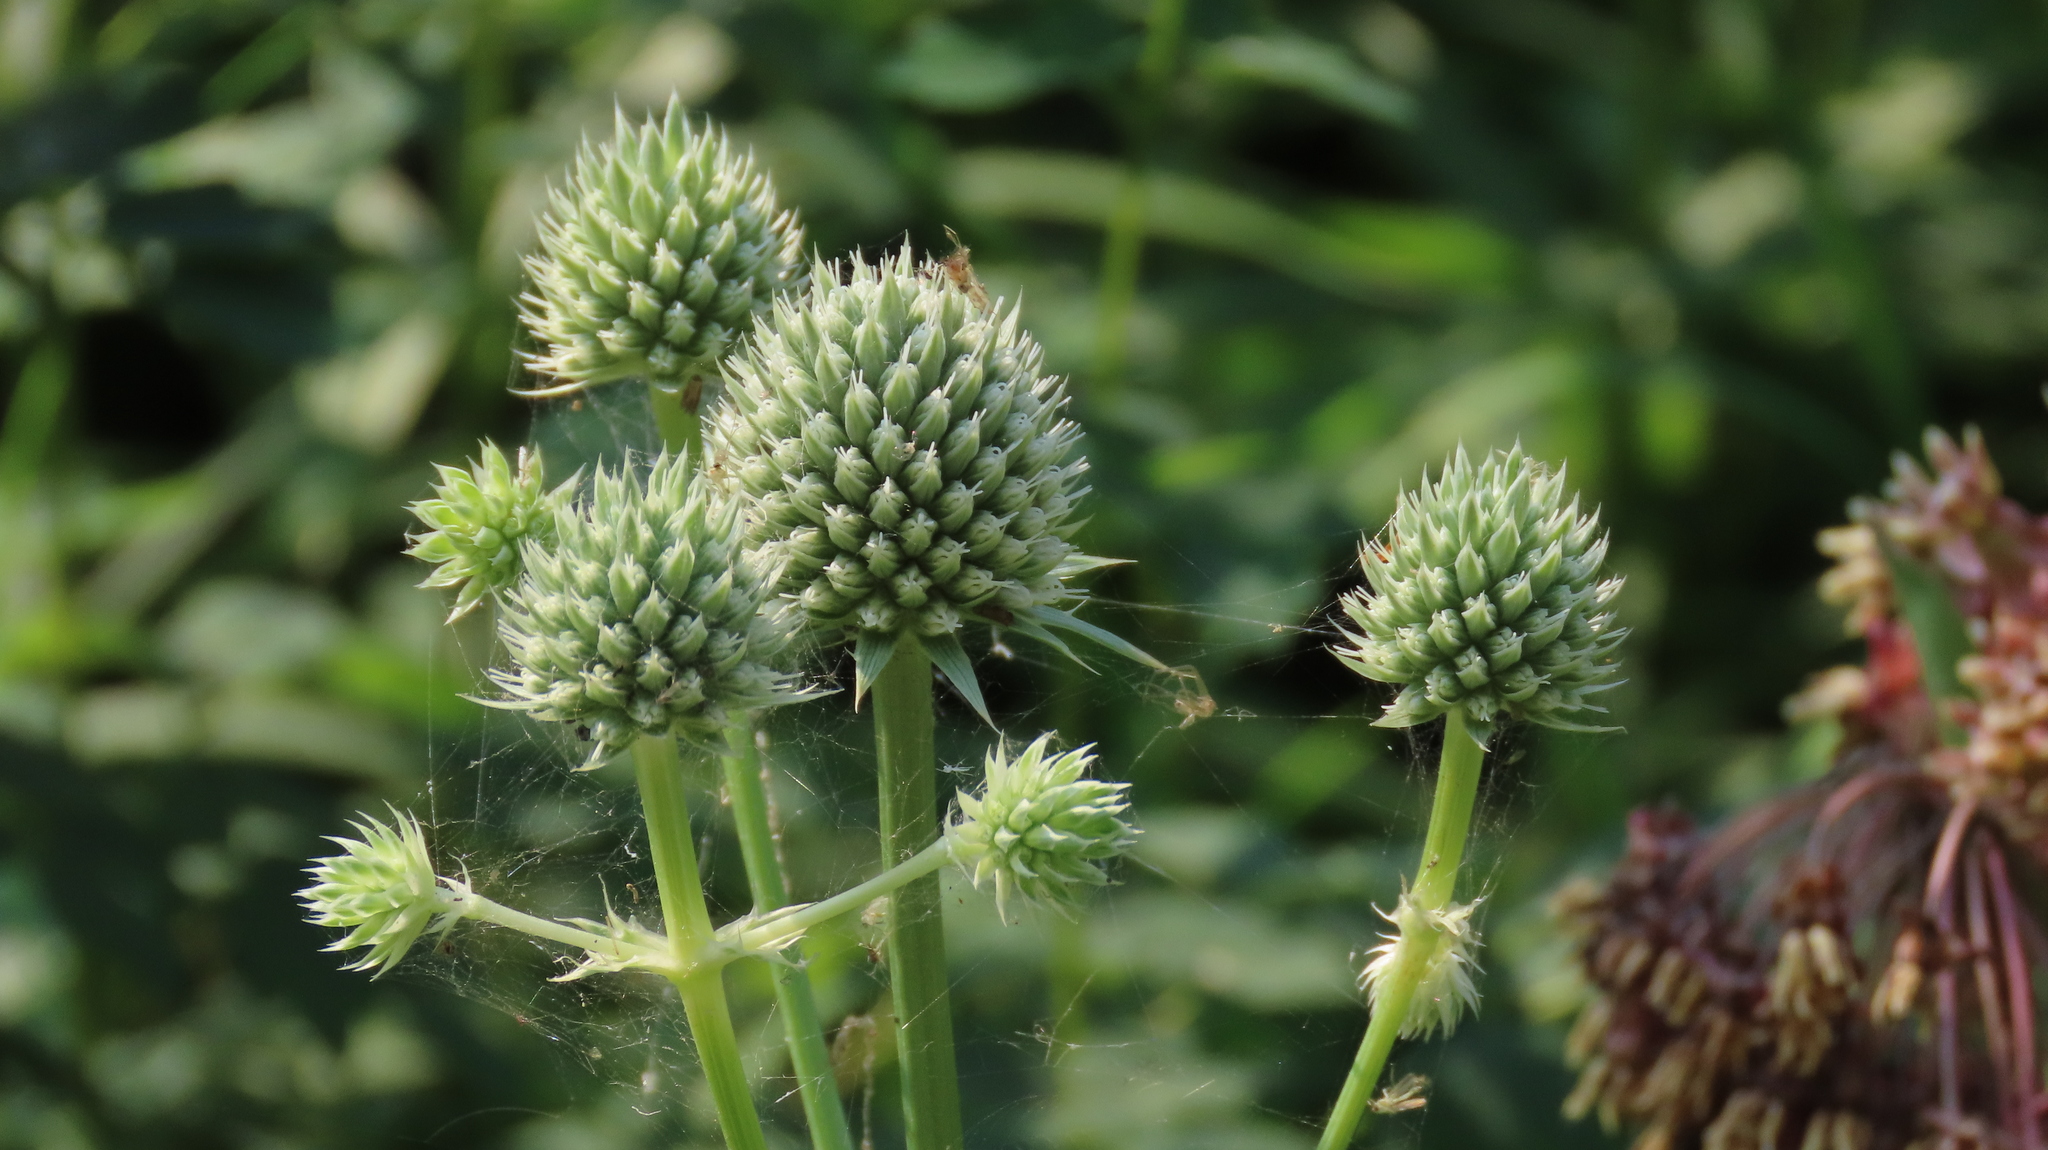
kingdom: Plantae
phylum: Tracheophyta
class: Magnoliopsida
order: Apiales
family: Apiaceae
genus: Eryngium
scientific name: Eryngium yuccifolium
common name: Button eryngo
